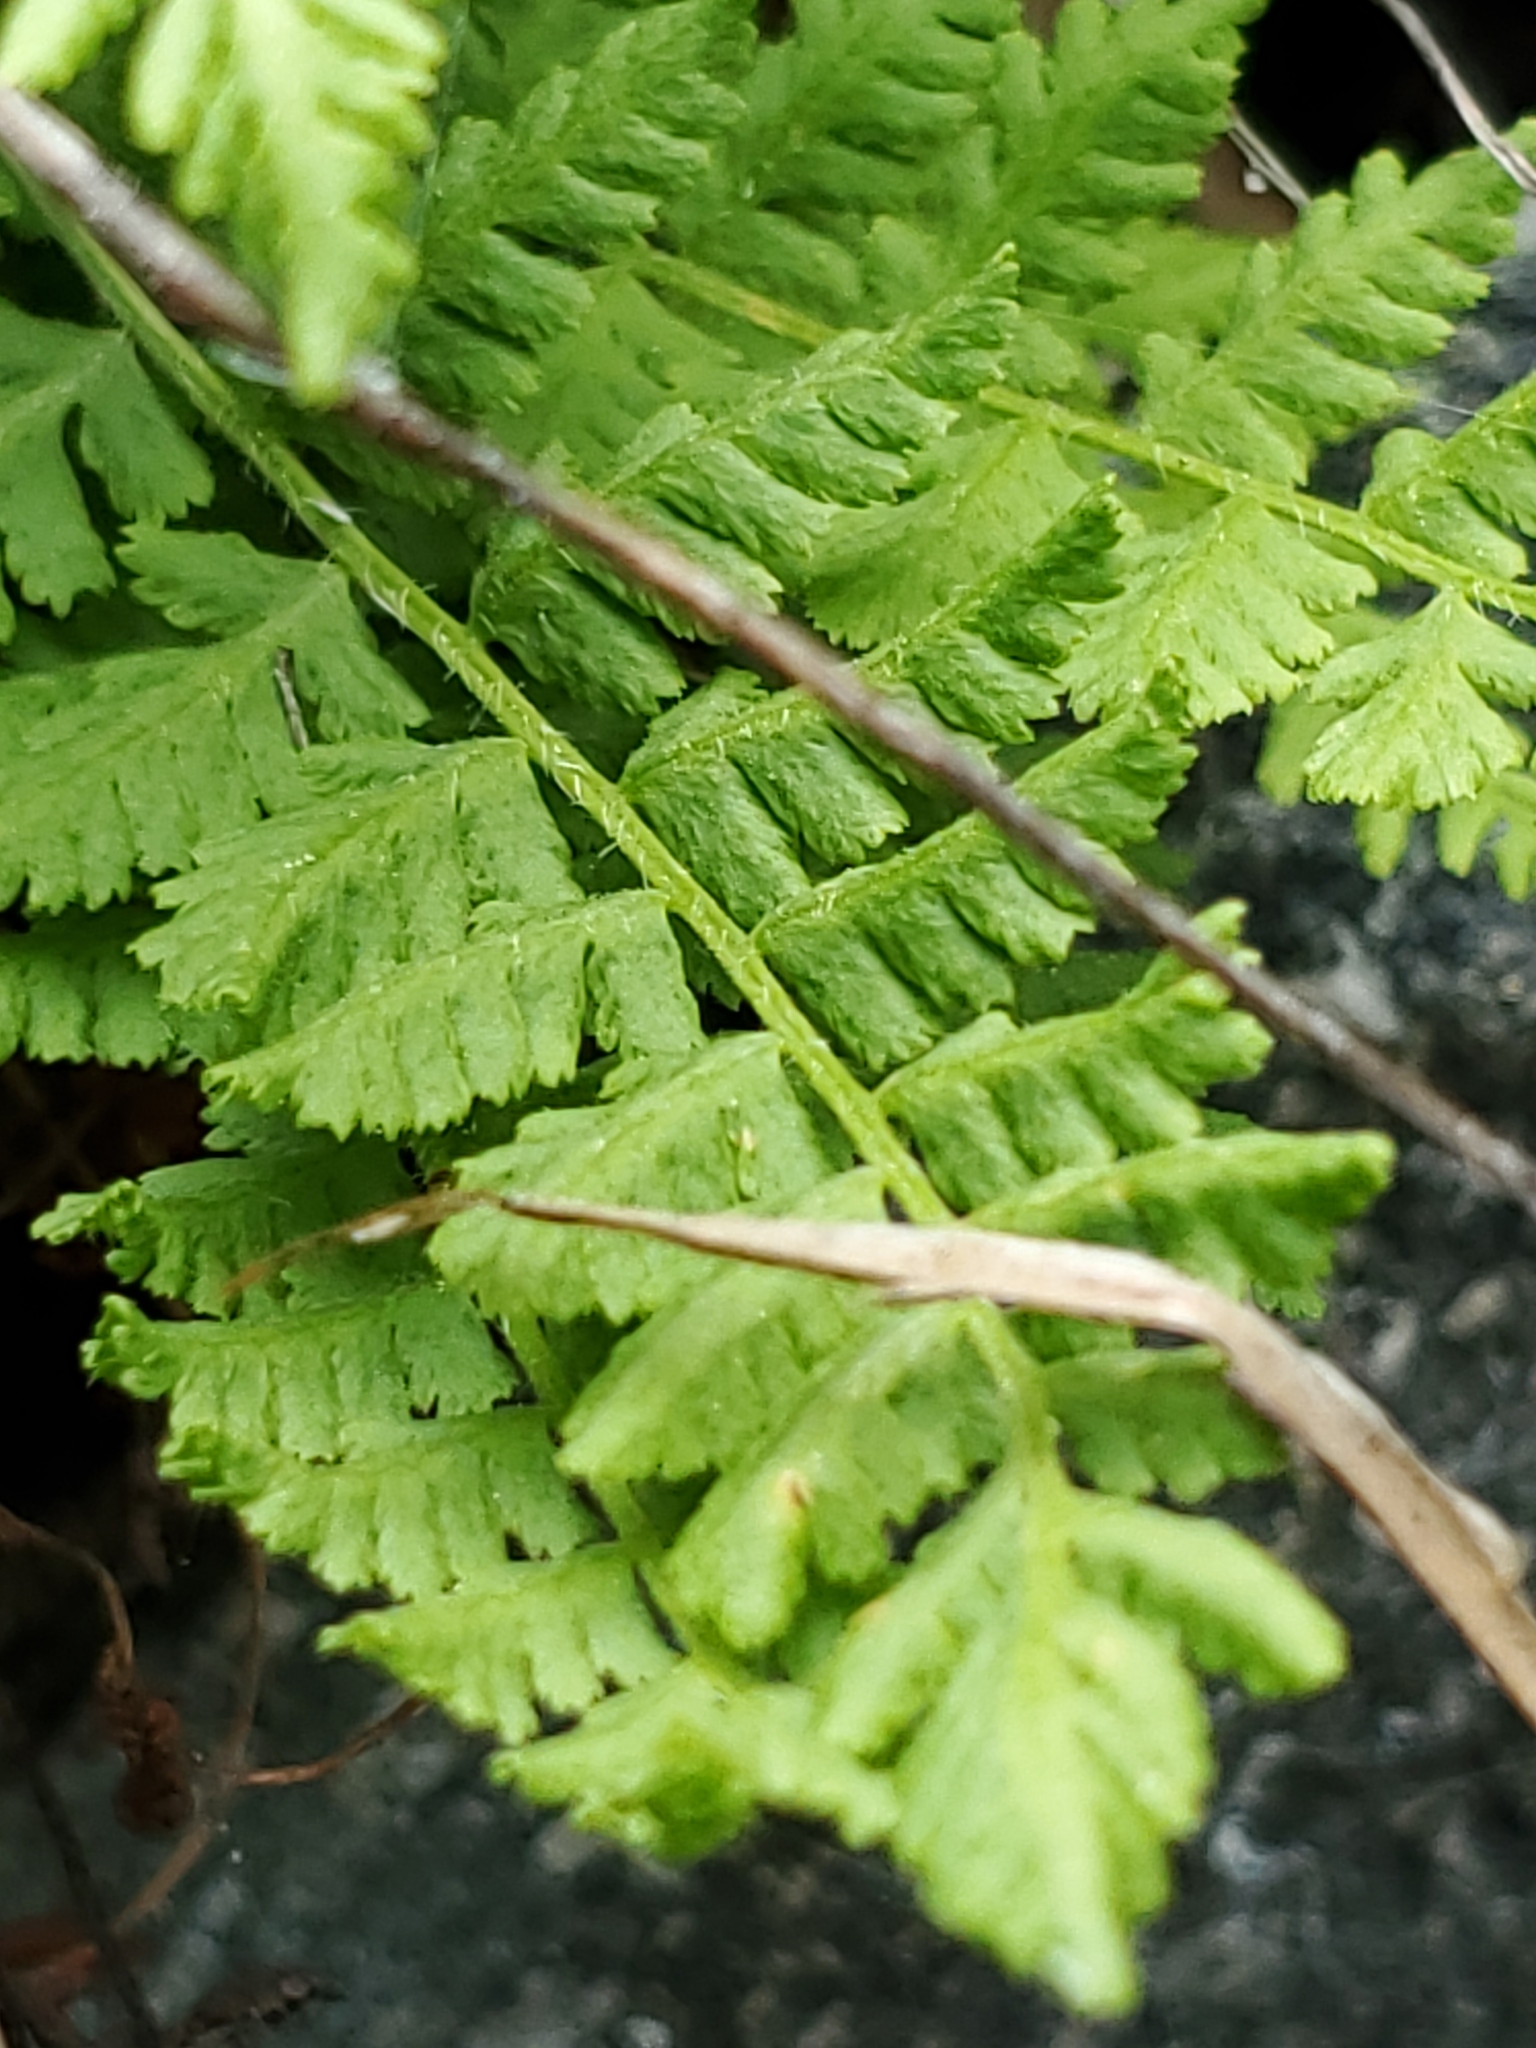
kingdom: Plantae
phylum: Tracheophyta
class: Polypodiopsida
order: Polypodiales
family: Woodsiaceae
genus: Physematium
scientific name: Physematium scopulinum
